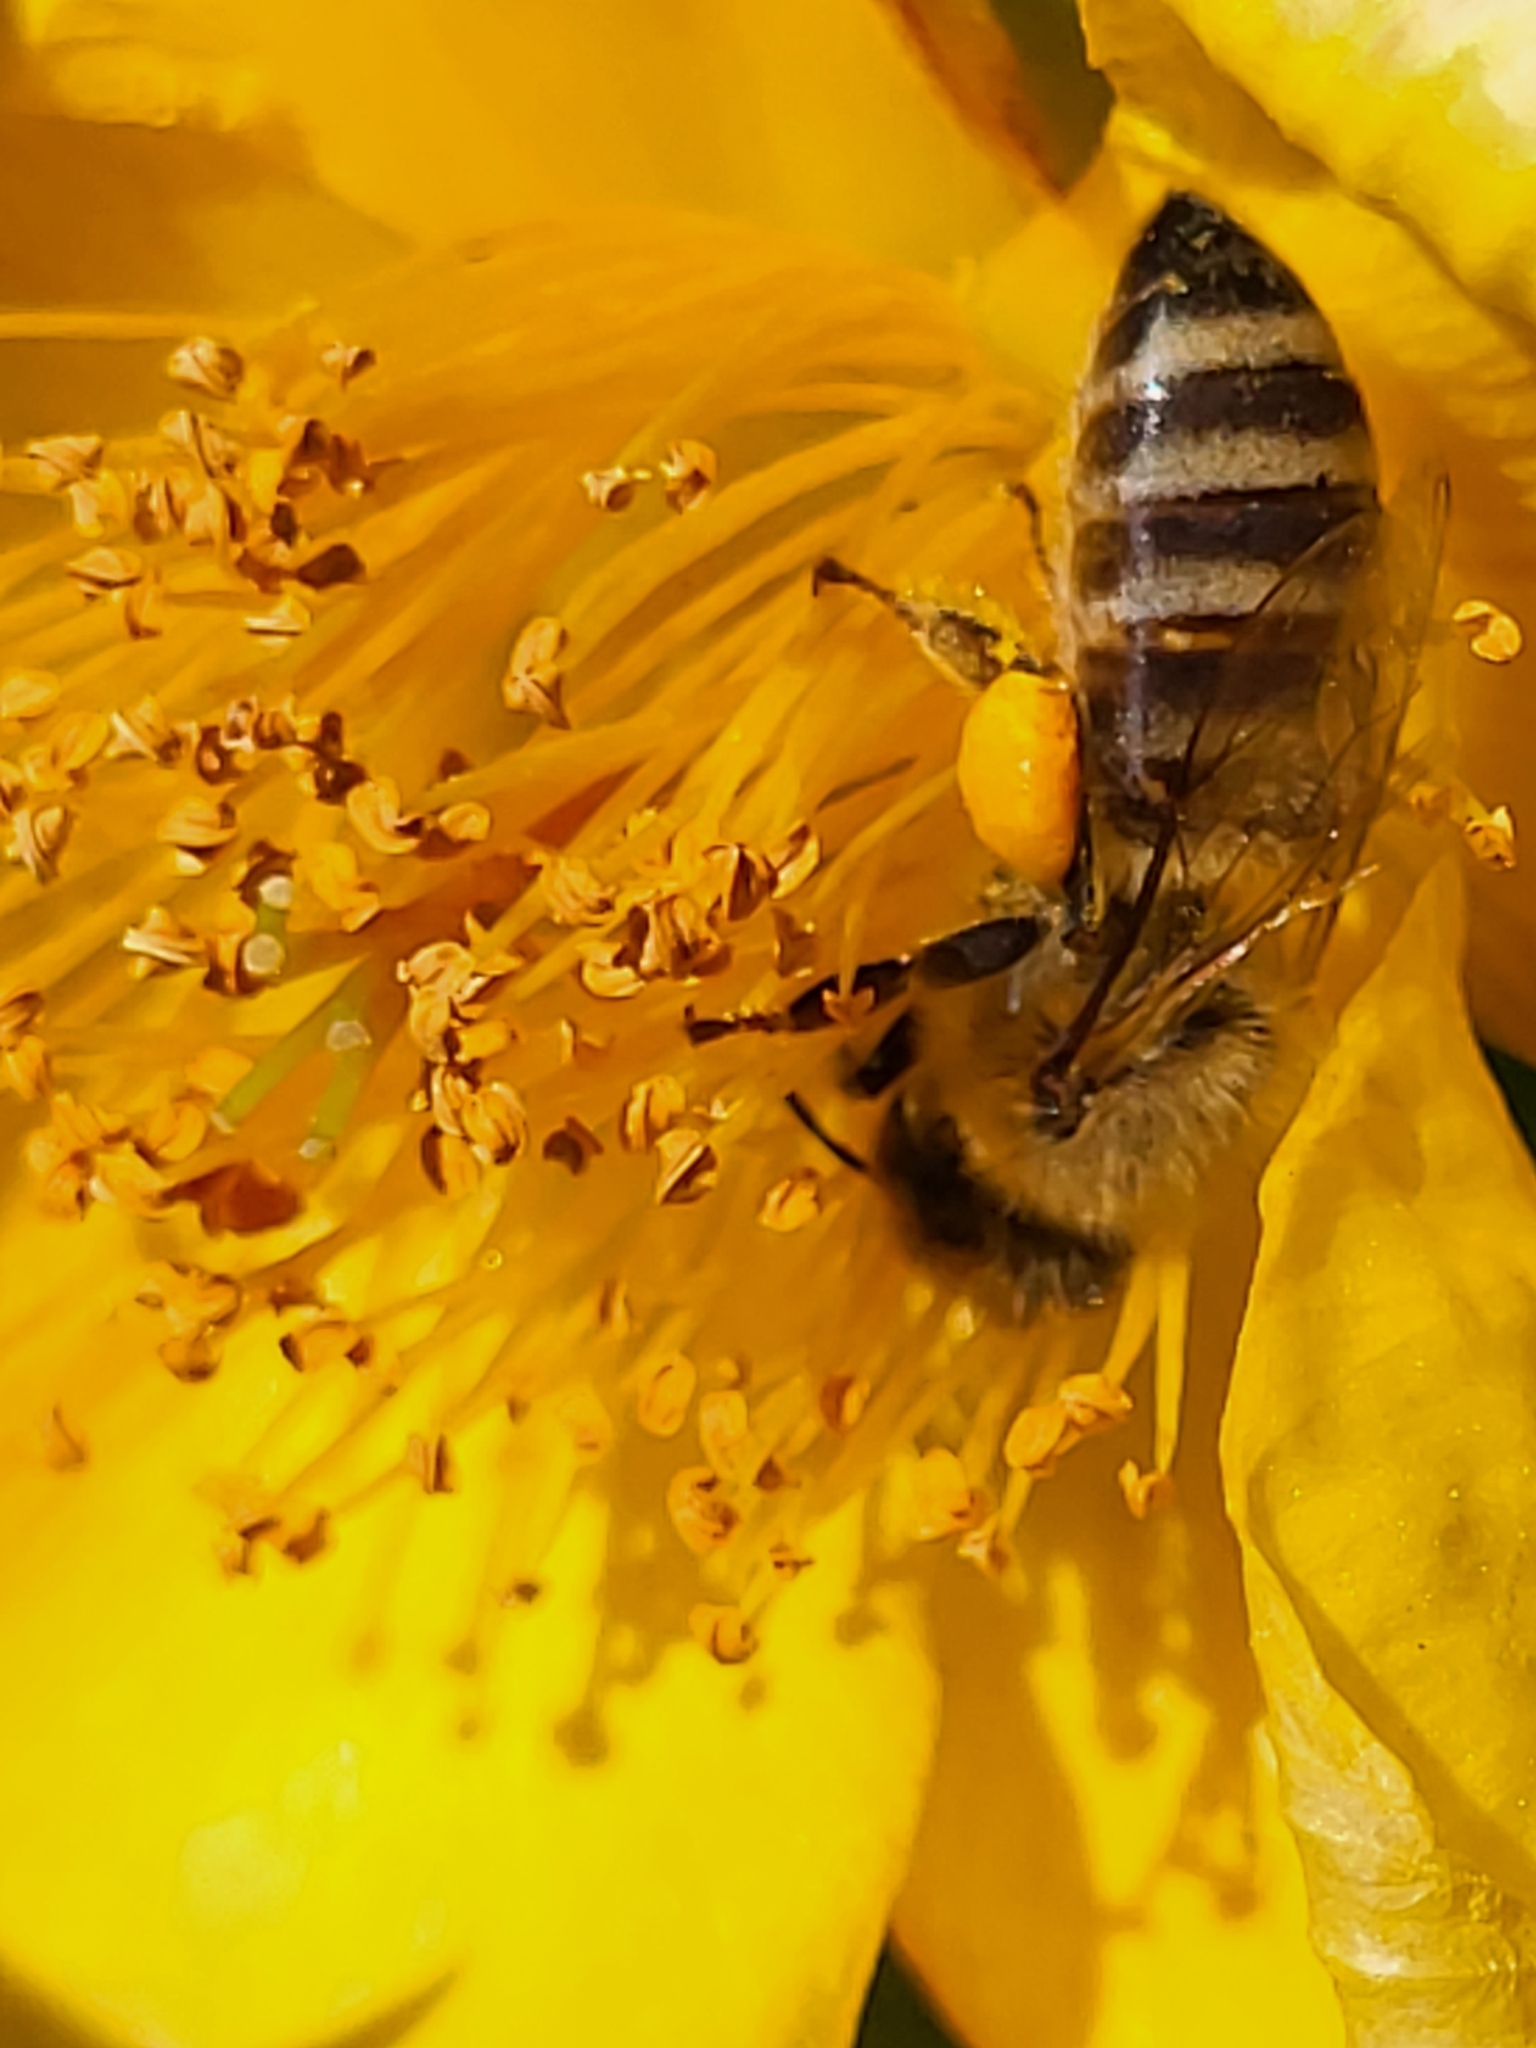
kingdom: Animalia
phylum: Arthropoda
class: Insecta
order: Hymenoptera
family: Apidae
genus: Apis
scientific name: Apis mellifera
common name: Honey bee
